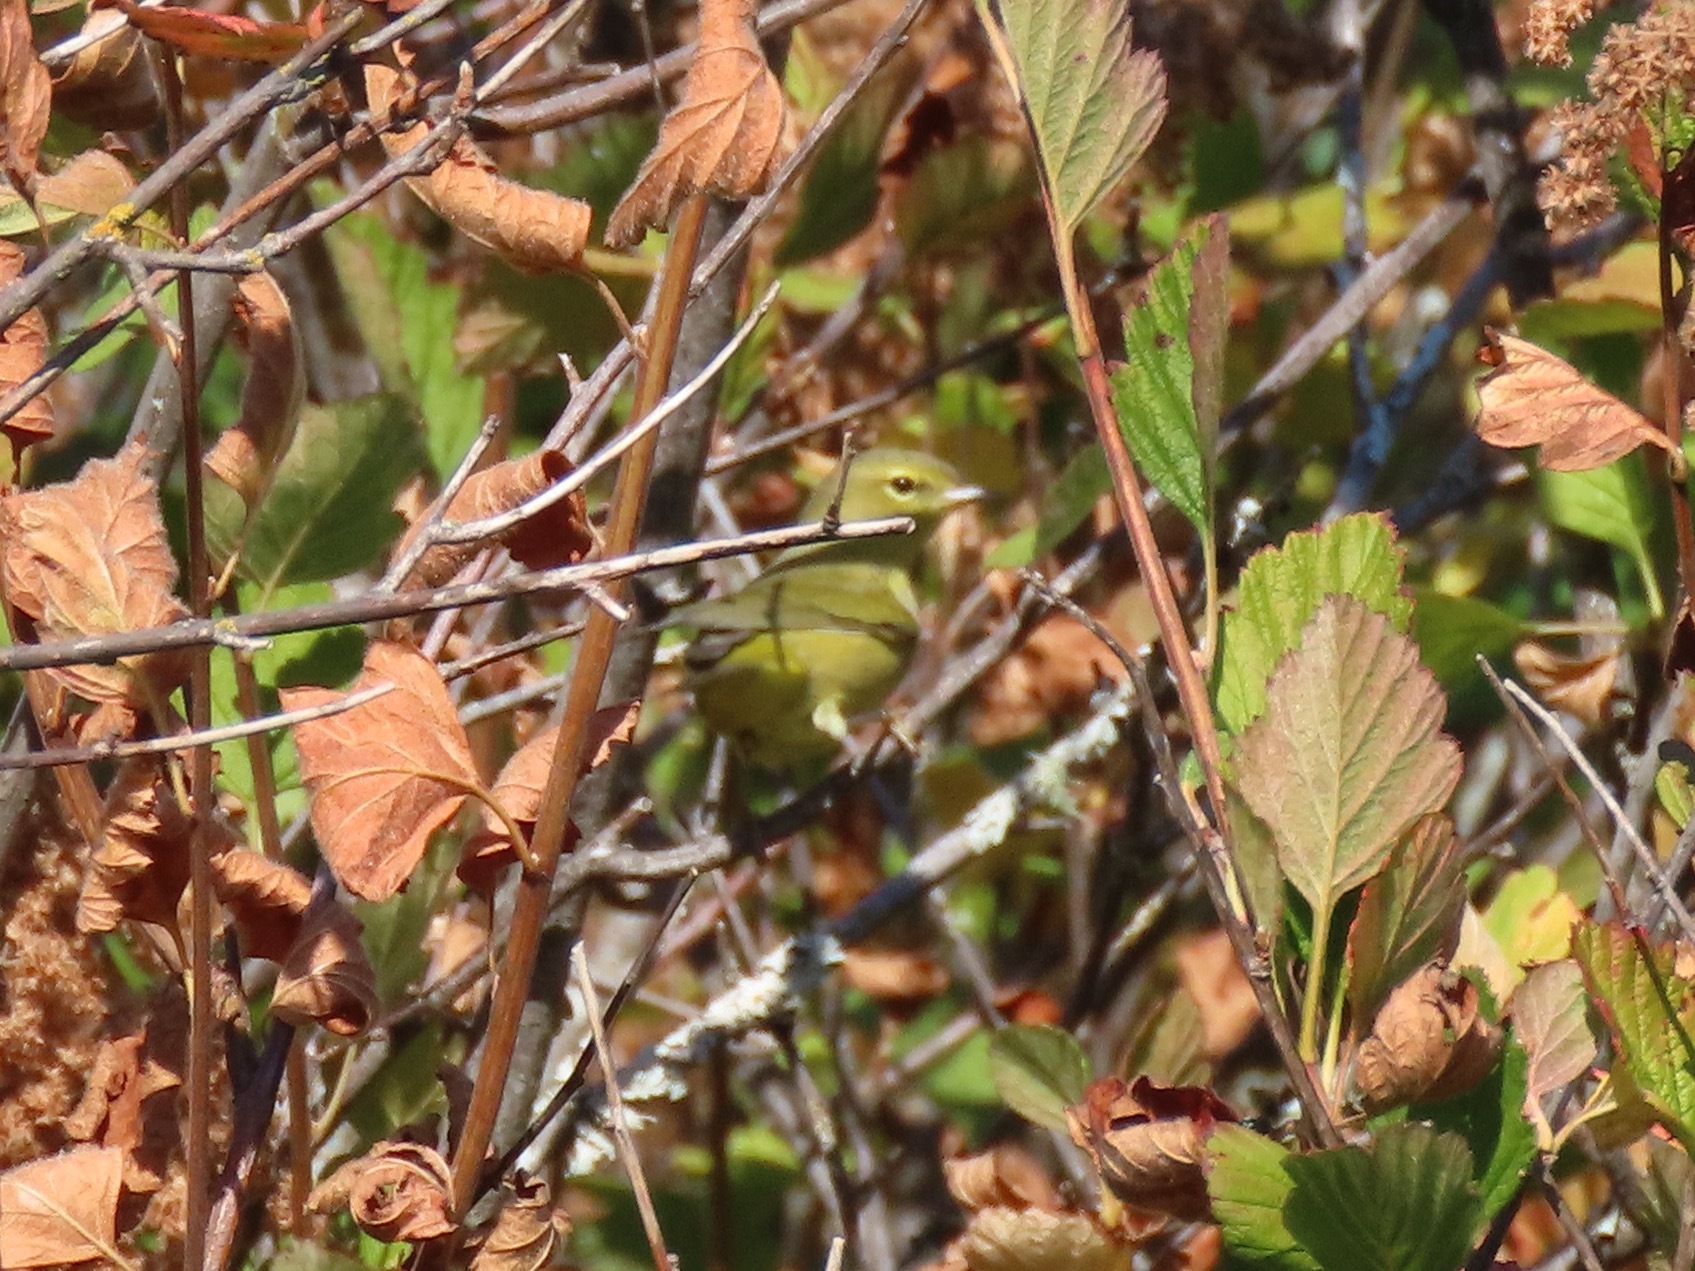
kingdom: Animalia
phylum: Chordata
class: Aves
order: Passeriformes
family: Parulidae
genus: Leiothlypis
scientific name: Leiothlypis celata
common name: Orange-crowned warbler
